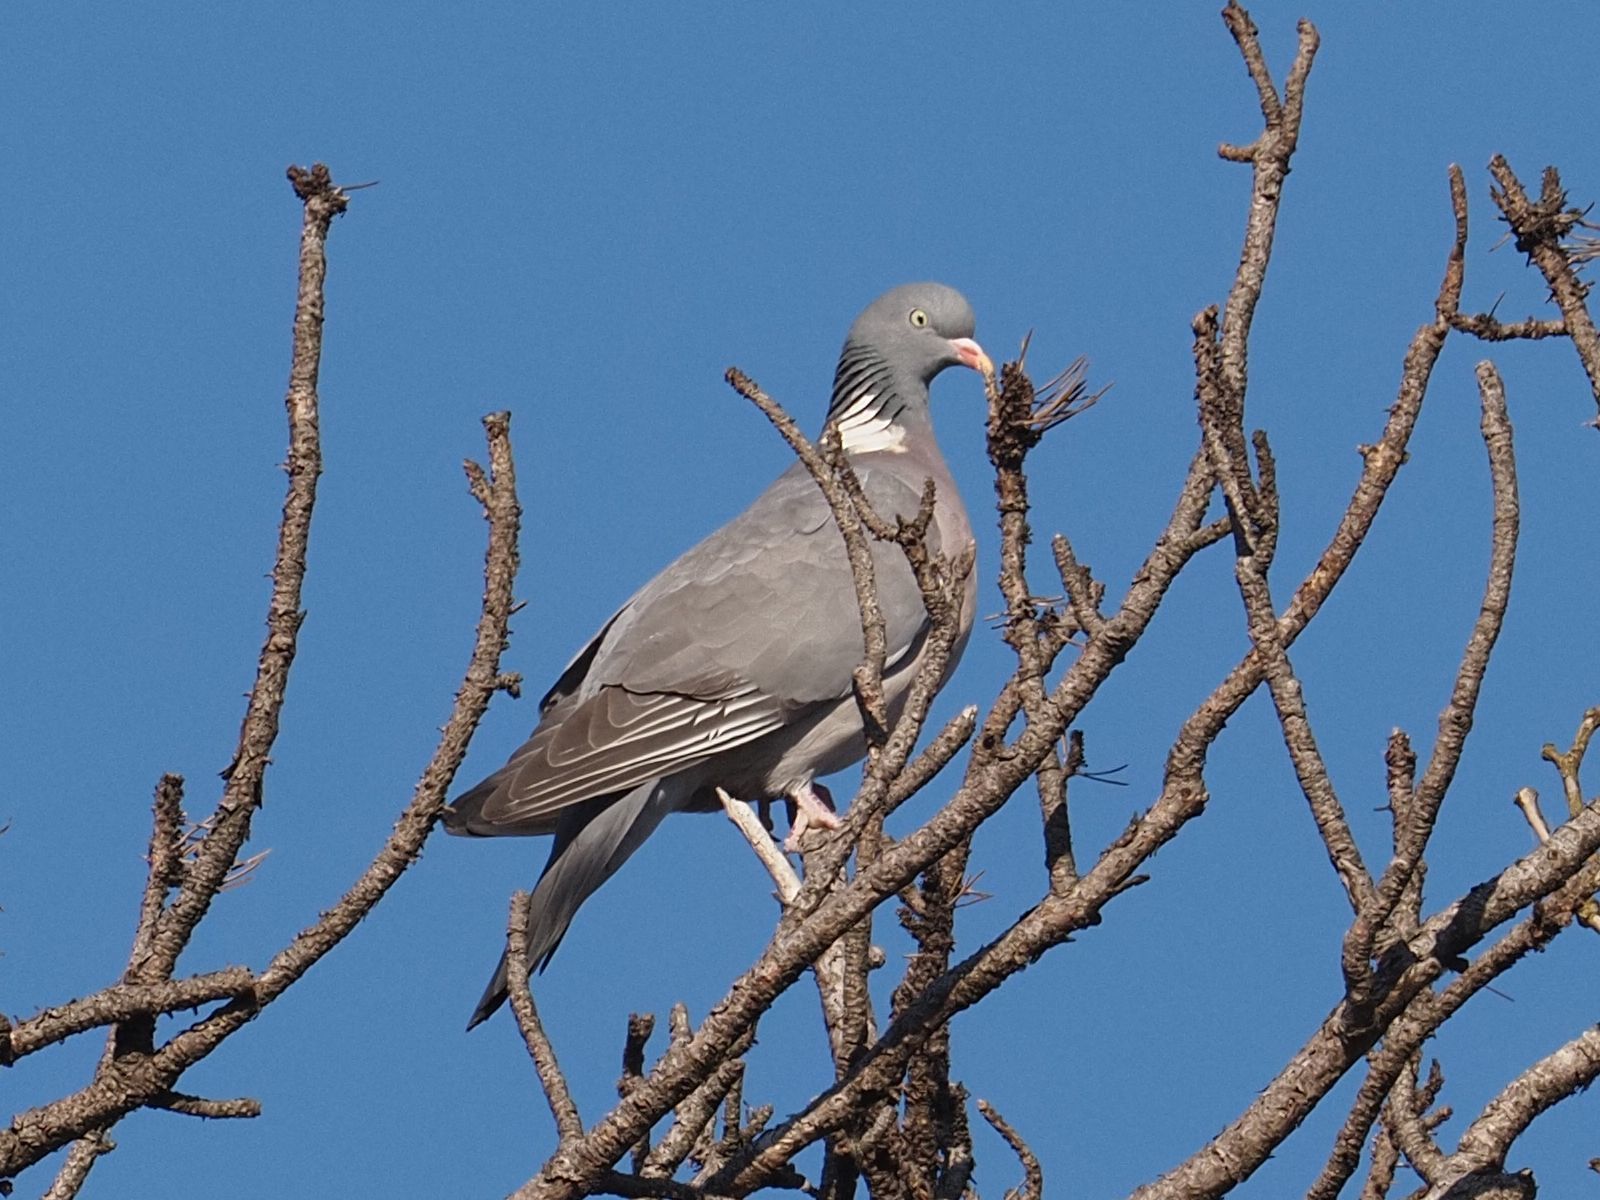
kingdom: Animalia
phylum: Chordata
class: Aves
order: Columbiformes
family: Columbidae
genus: Columba
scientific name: Columba palumbus
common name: Common wood pigeon
